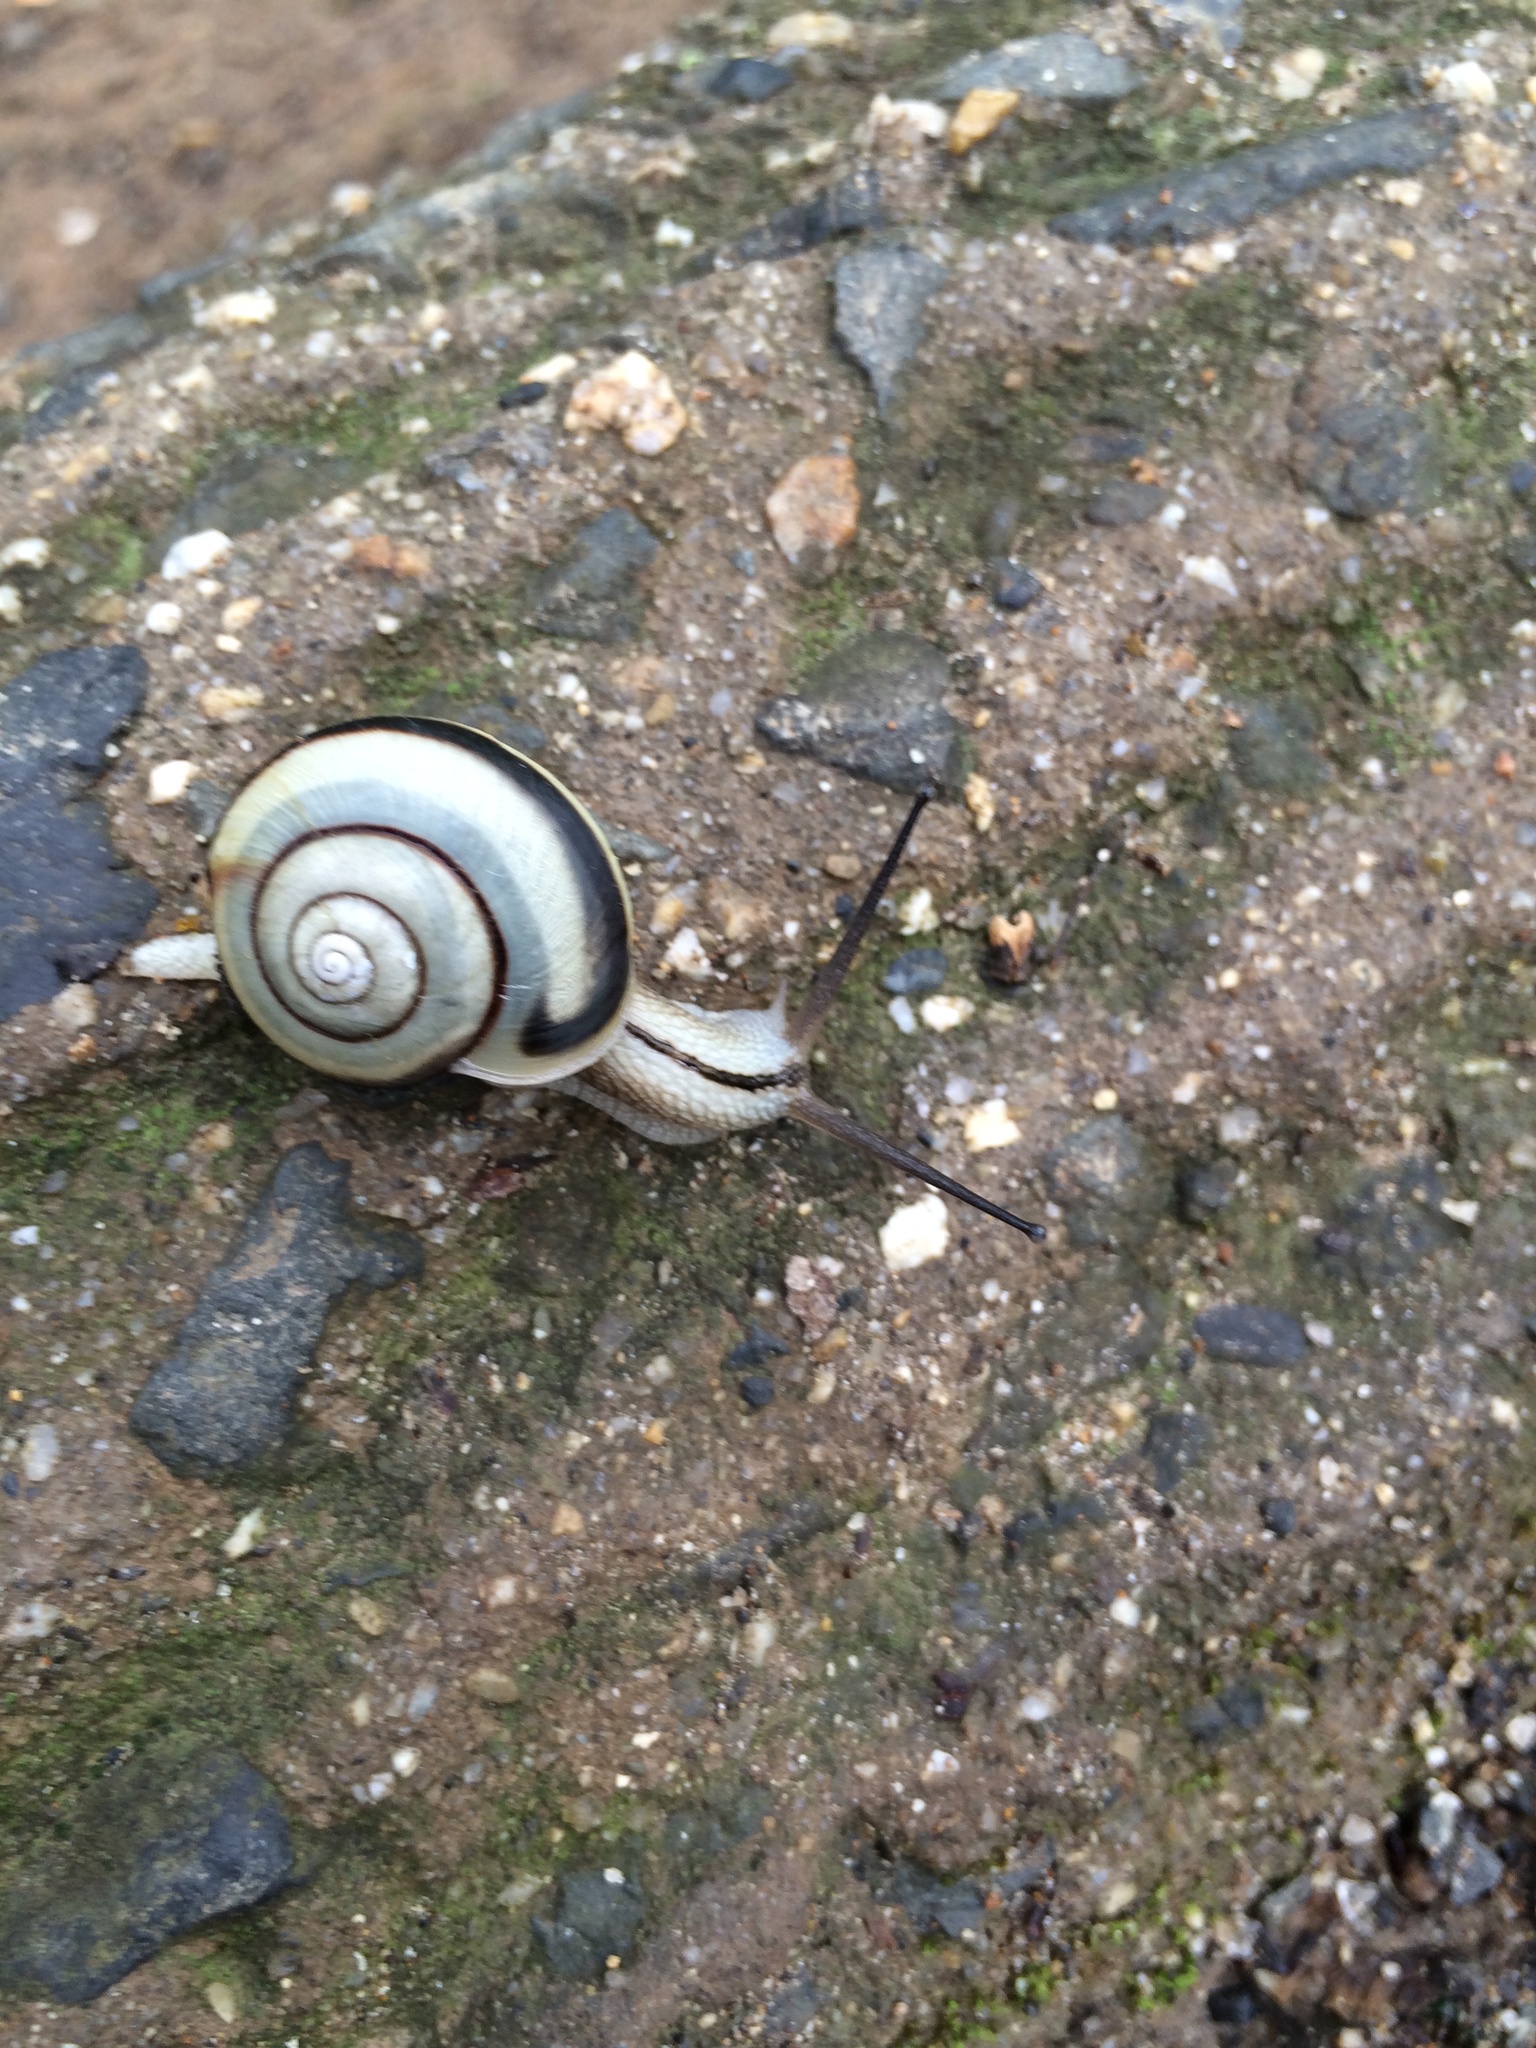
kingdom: Animalia
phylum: Mollusca
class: Gastropoda
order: Stylommatophora
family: Camaenidae
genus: Euhadra
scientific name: Euhadra amaliae
